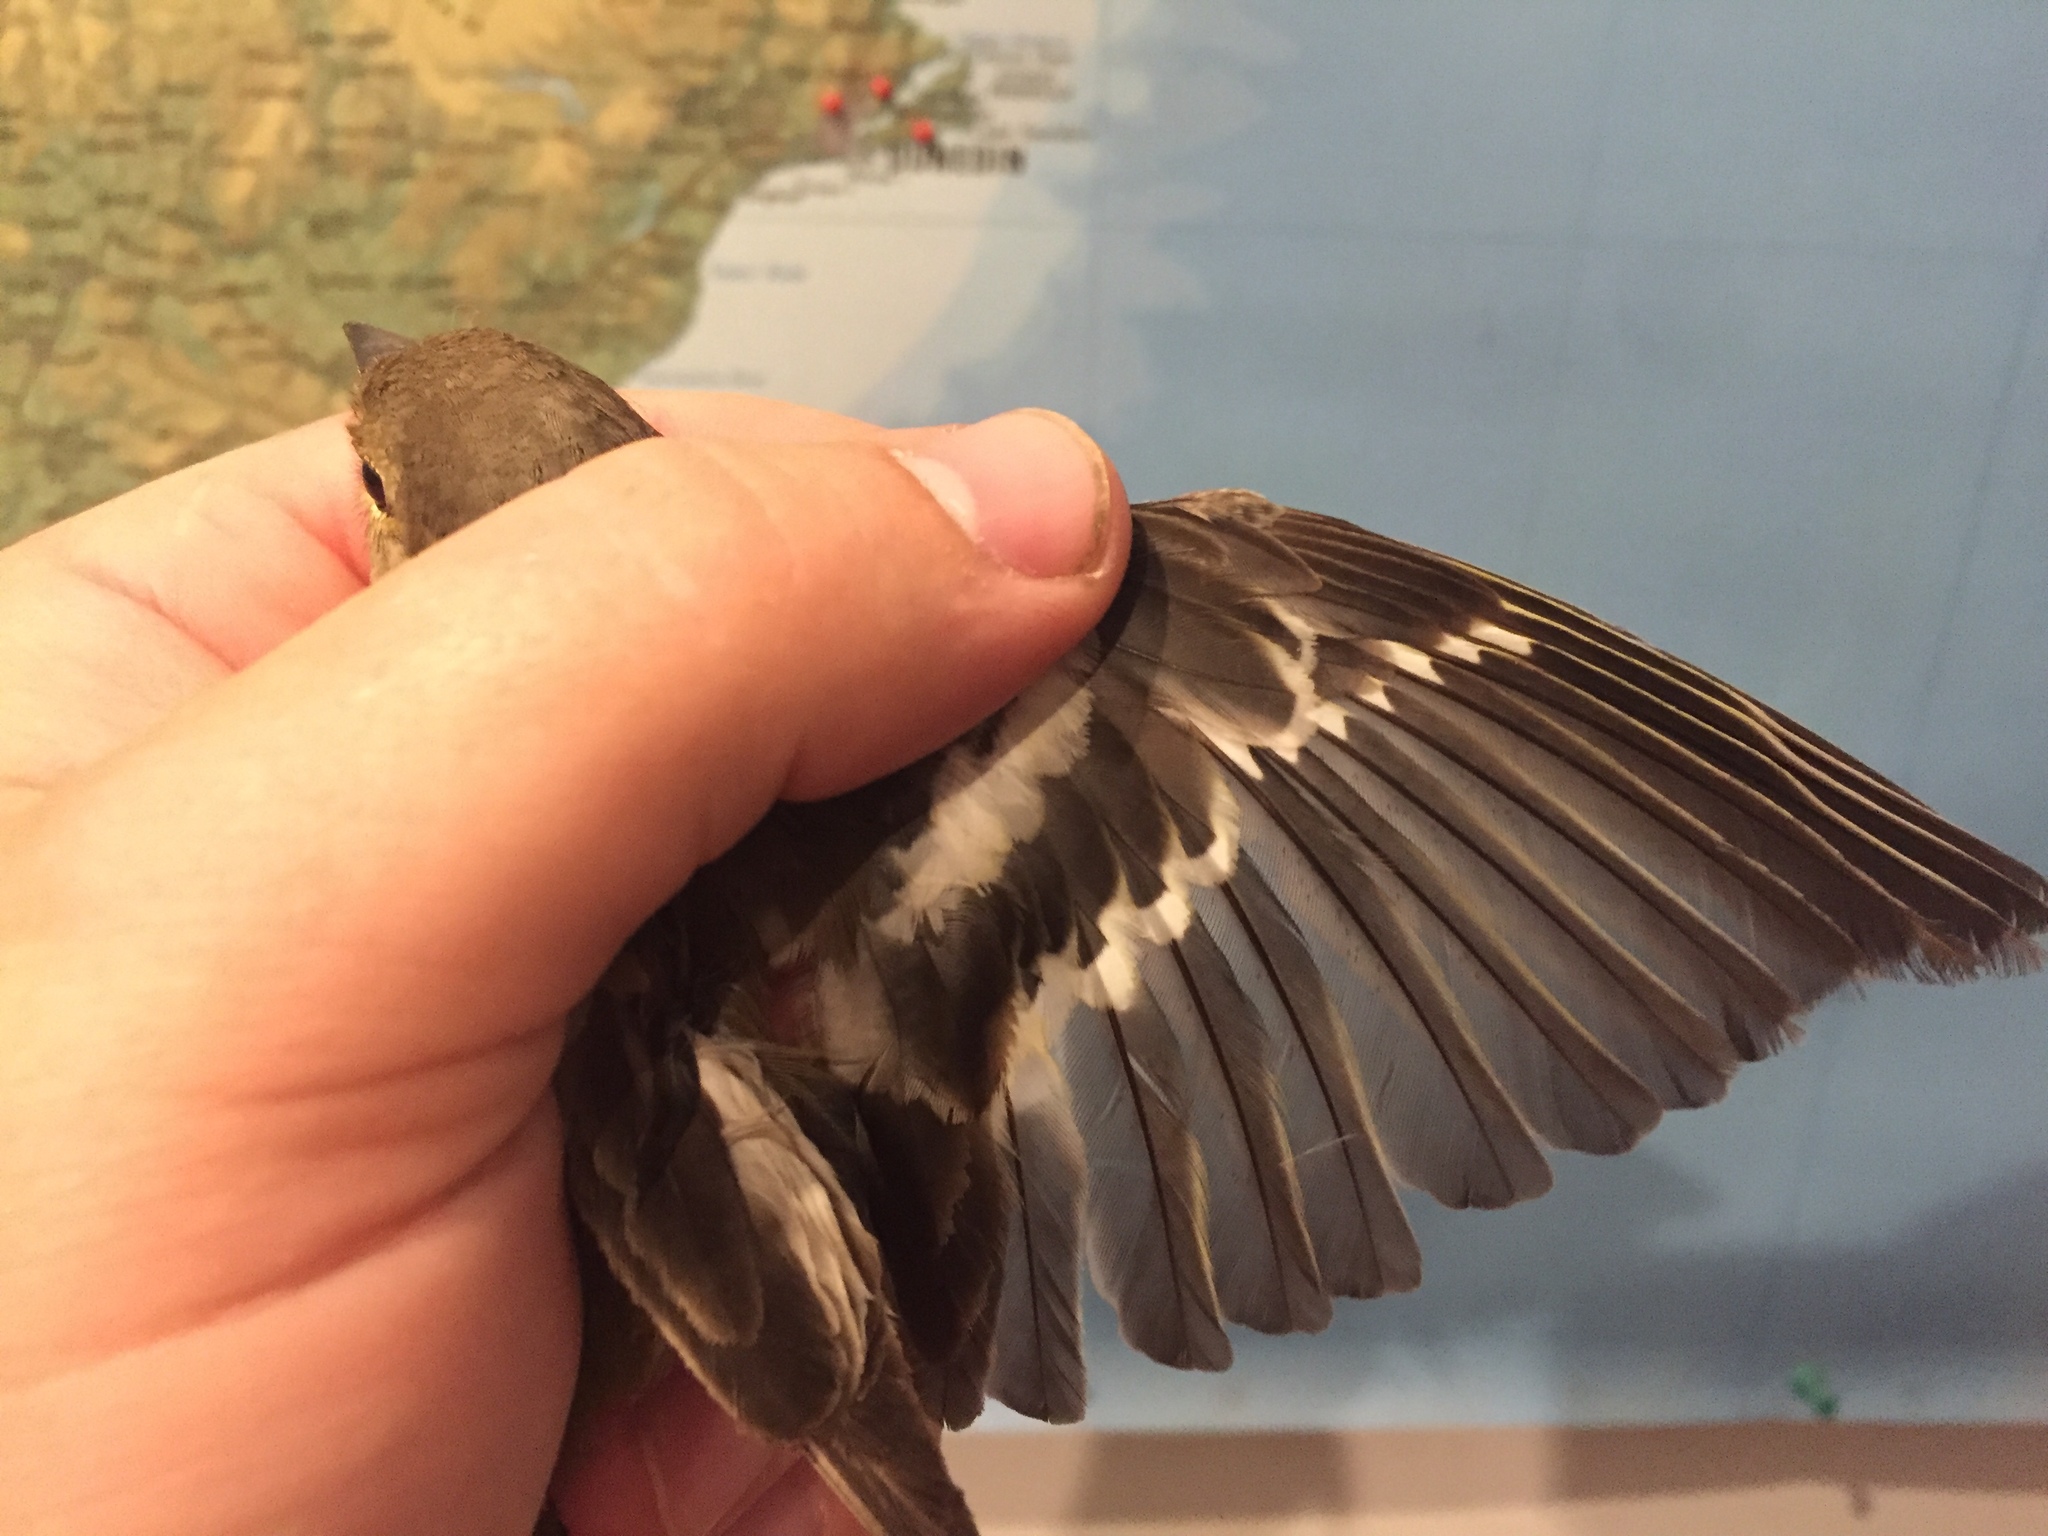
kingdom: Animalia
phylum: Chordata
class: Aves
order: Passeriformes
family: Fringillidae
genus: Fringilla
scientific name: Fringilla coelebs
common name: Common chaffinch
